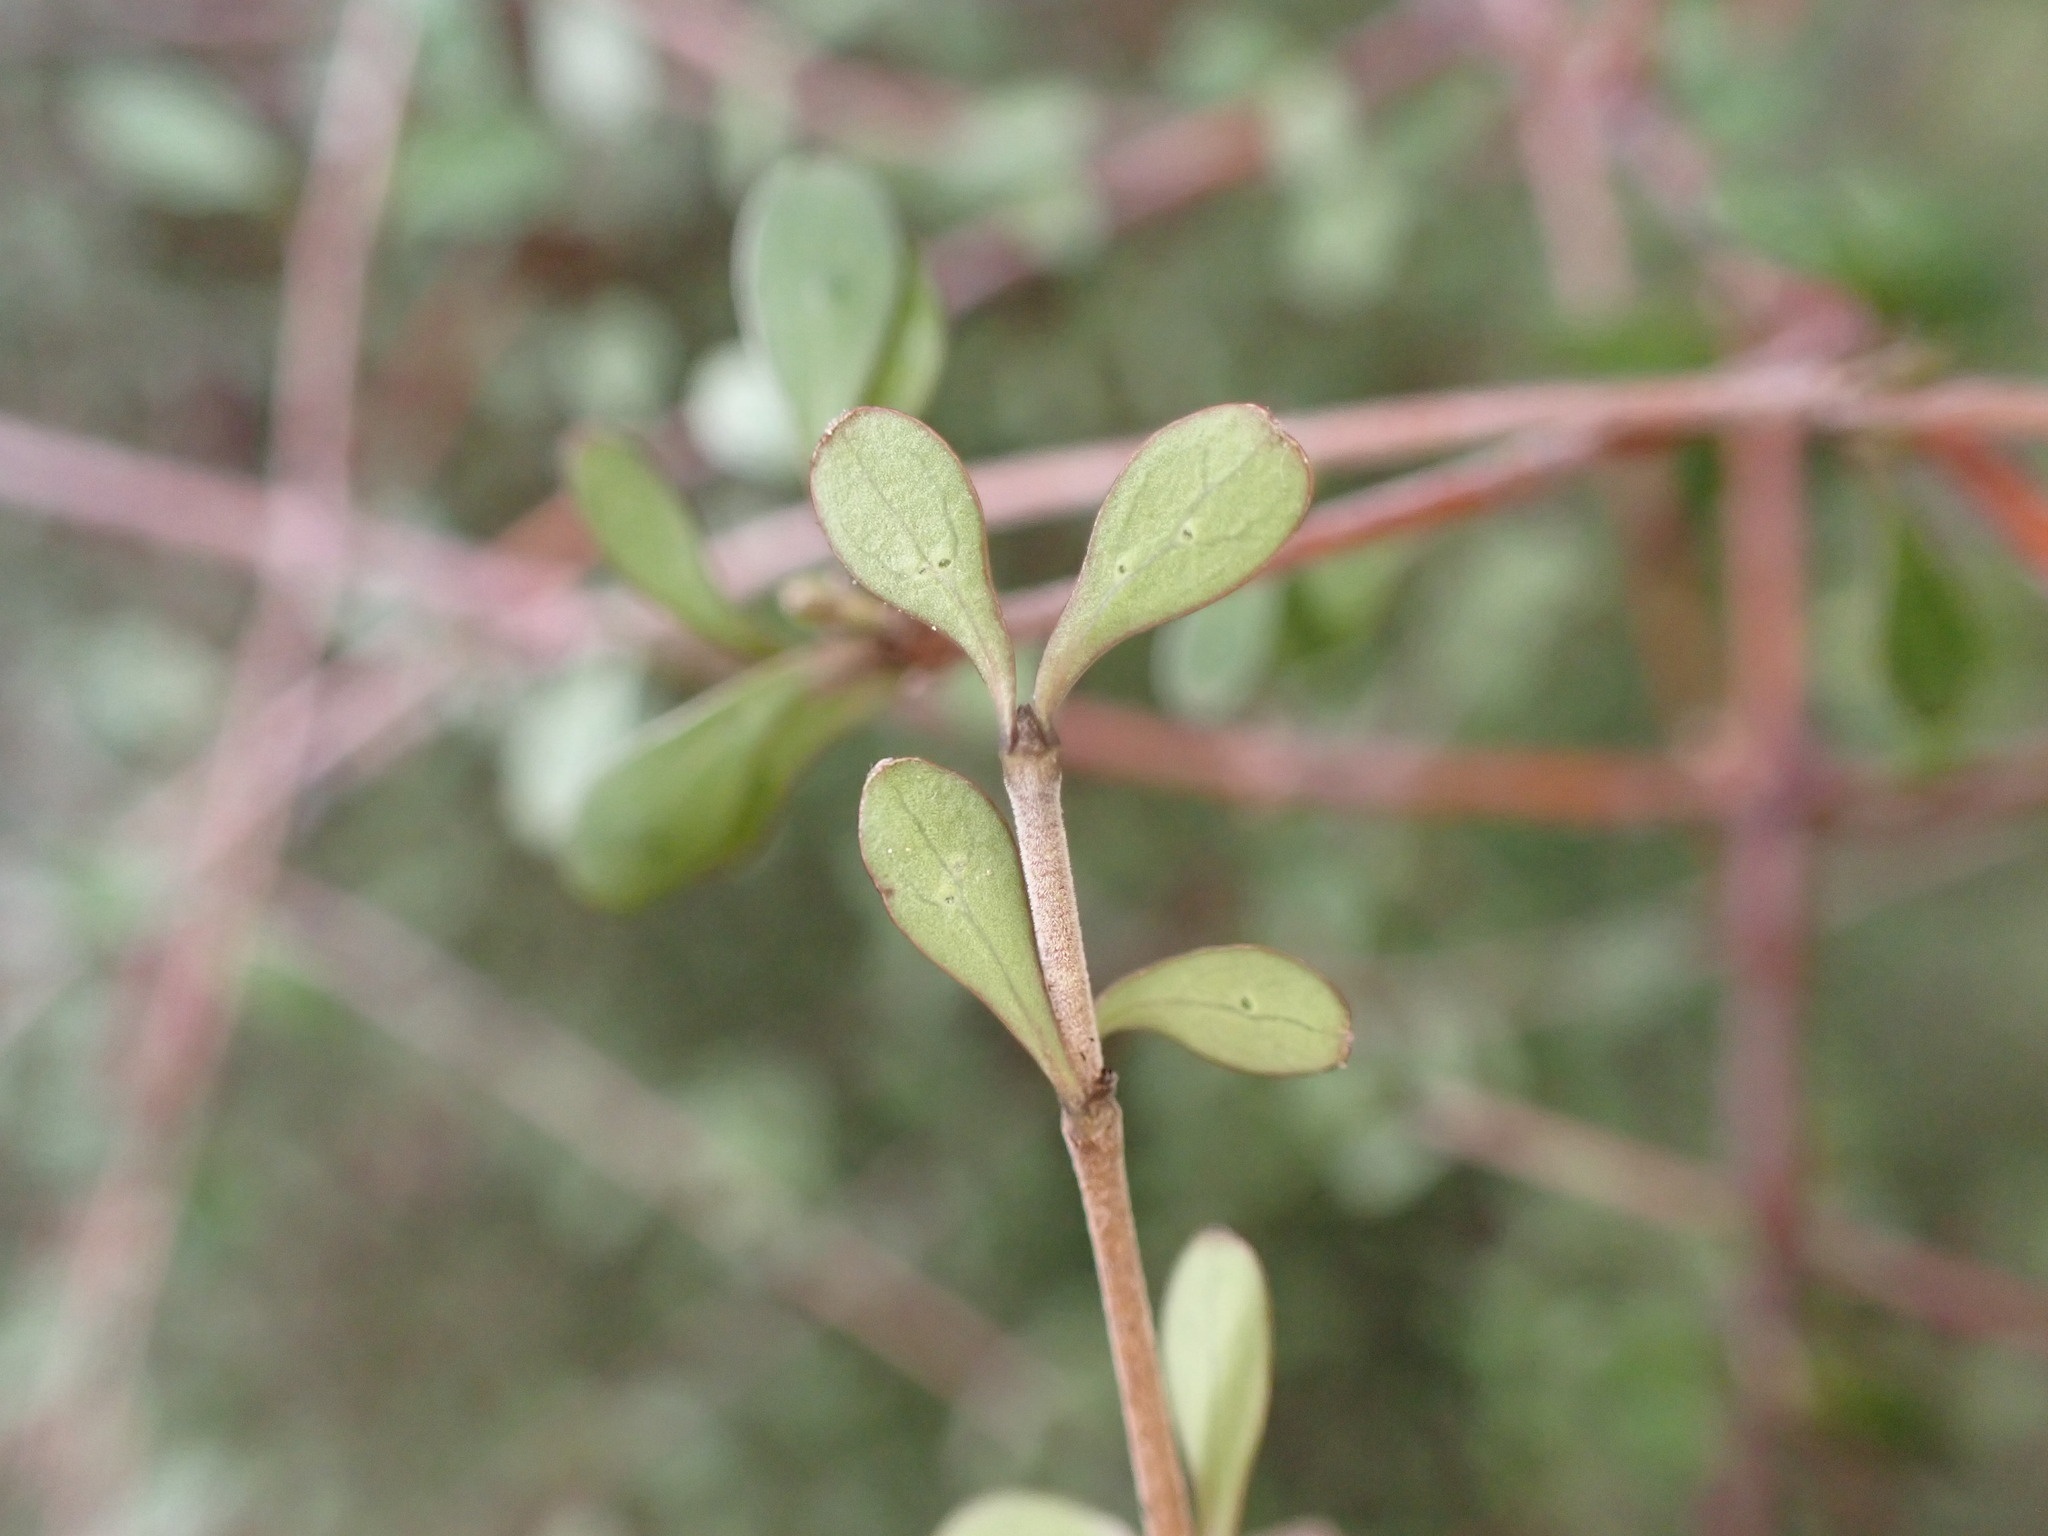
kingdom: Plantae
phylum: Tracheophyta
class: Magnoliopsida
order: Gentianales
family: Rubiaceae
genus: Coprosma
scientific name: Coprosma virescens
